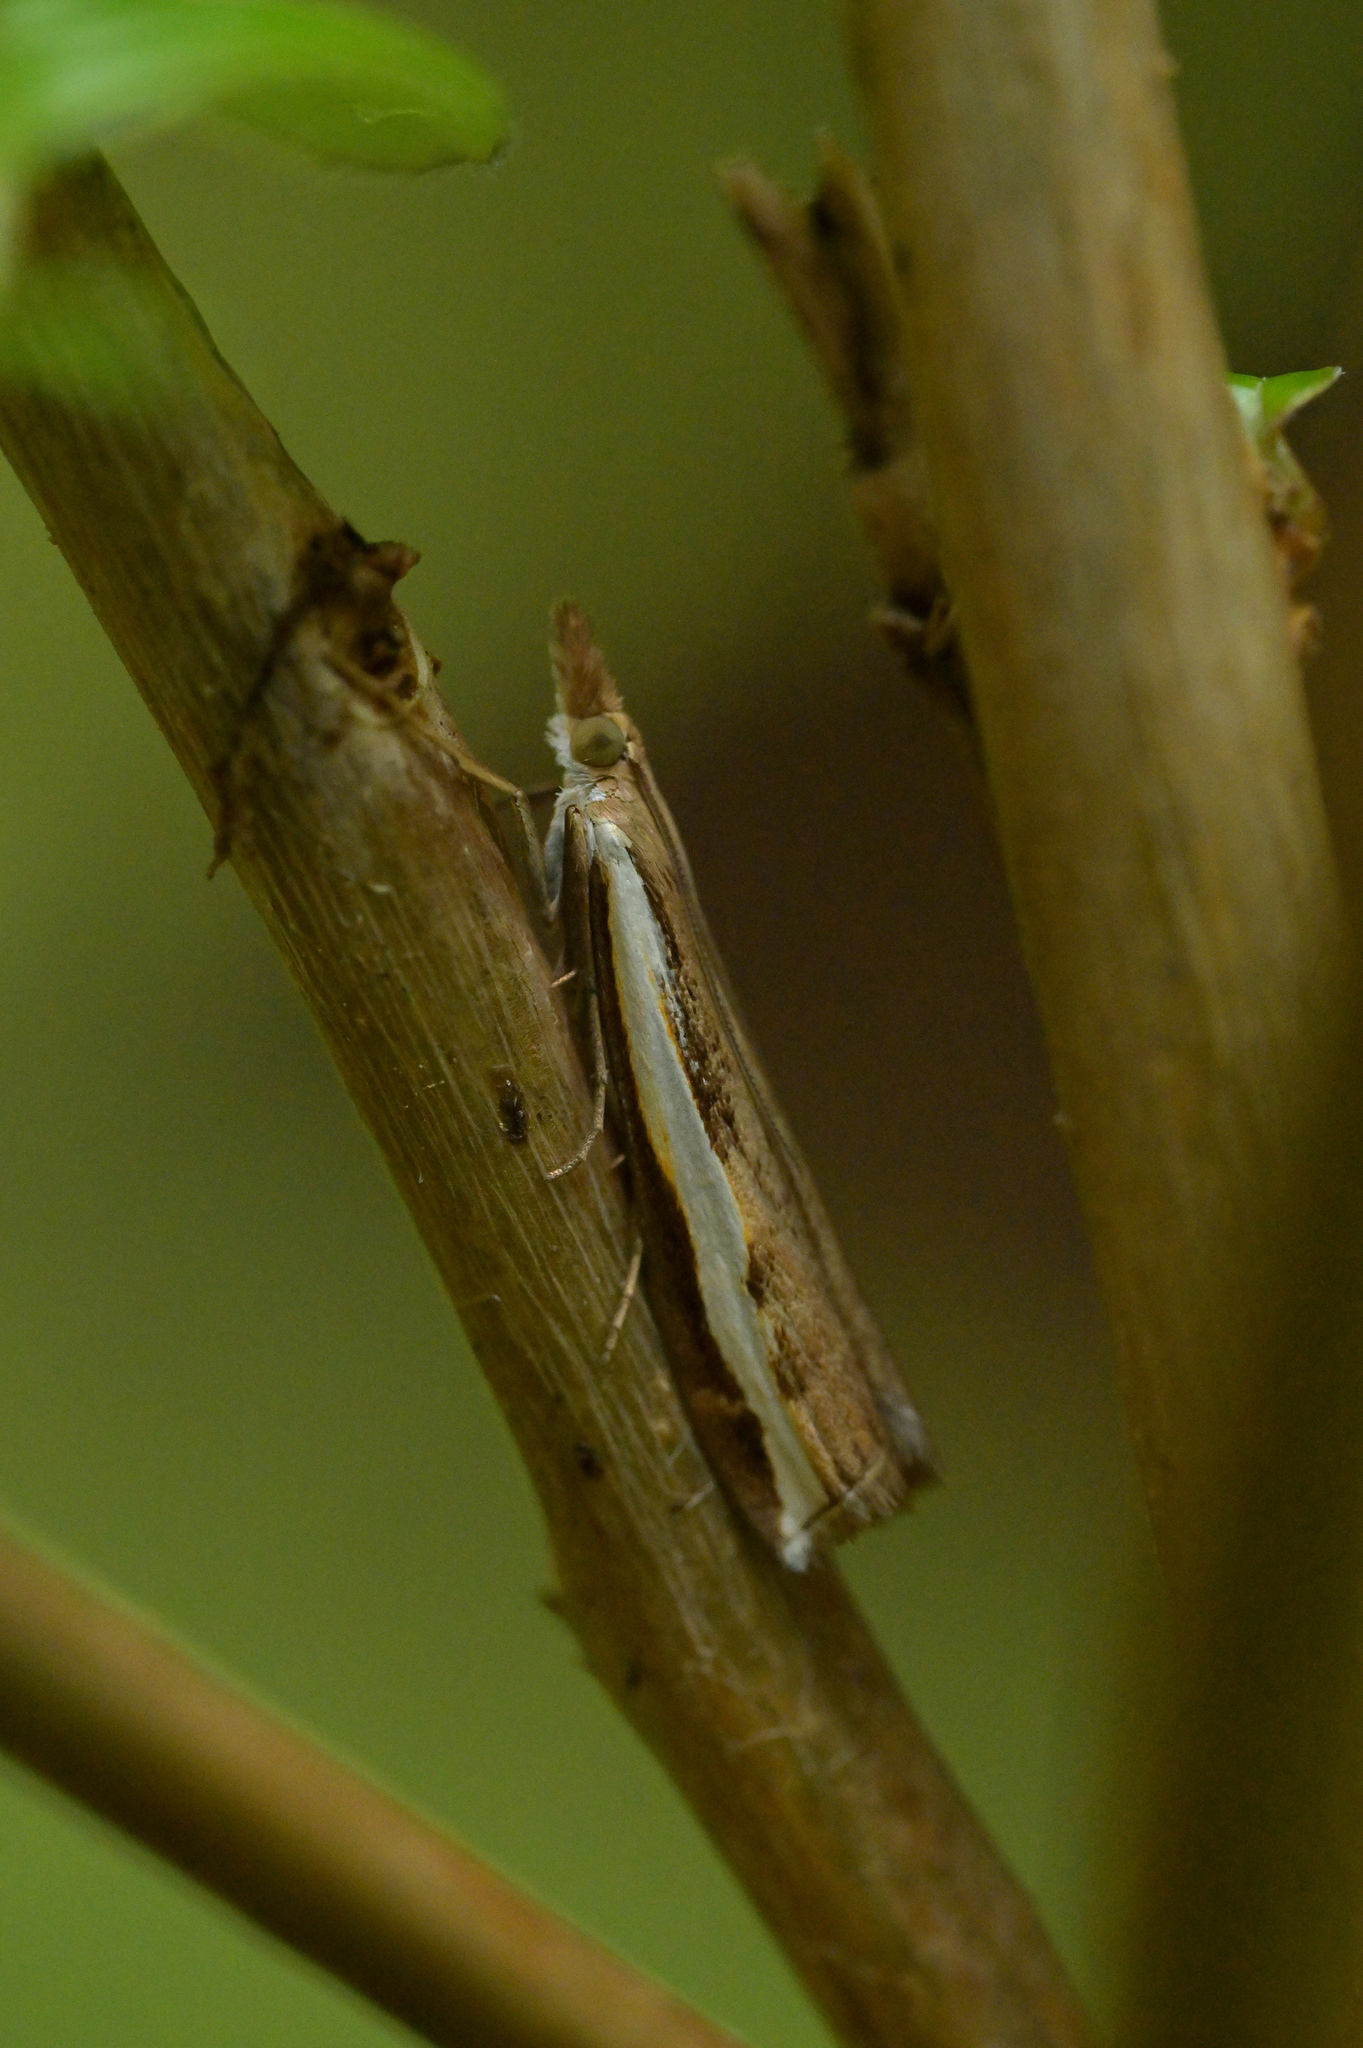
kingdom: Animalia
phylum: Arthropoda
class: Insecta
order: Lepidoptera
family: Crambidae
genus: Orocrambus
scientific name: Orocrambus flexuosellus
